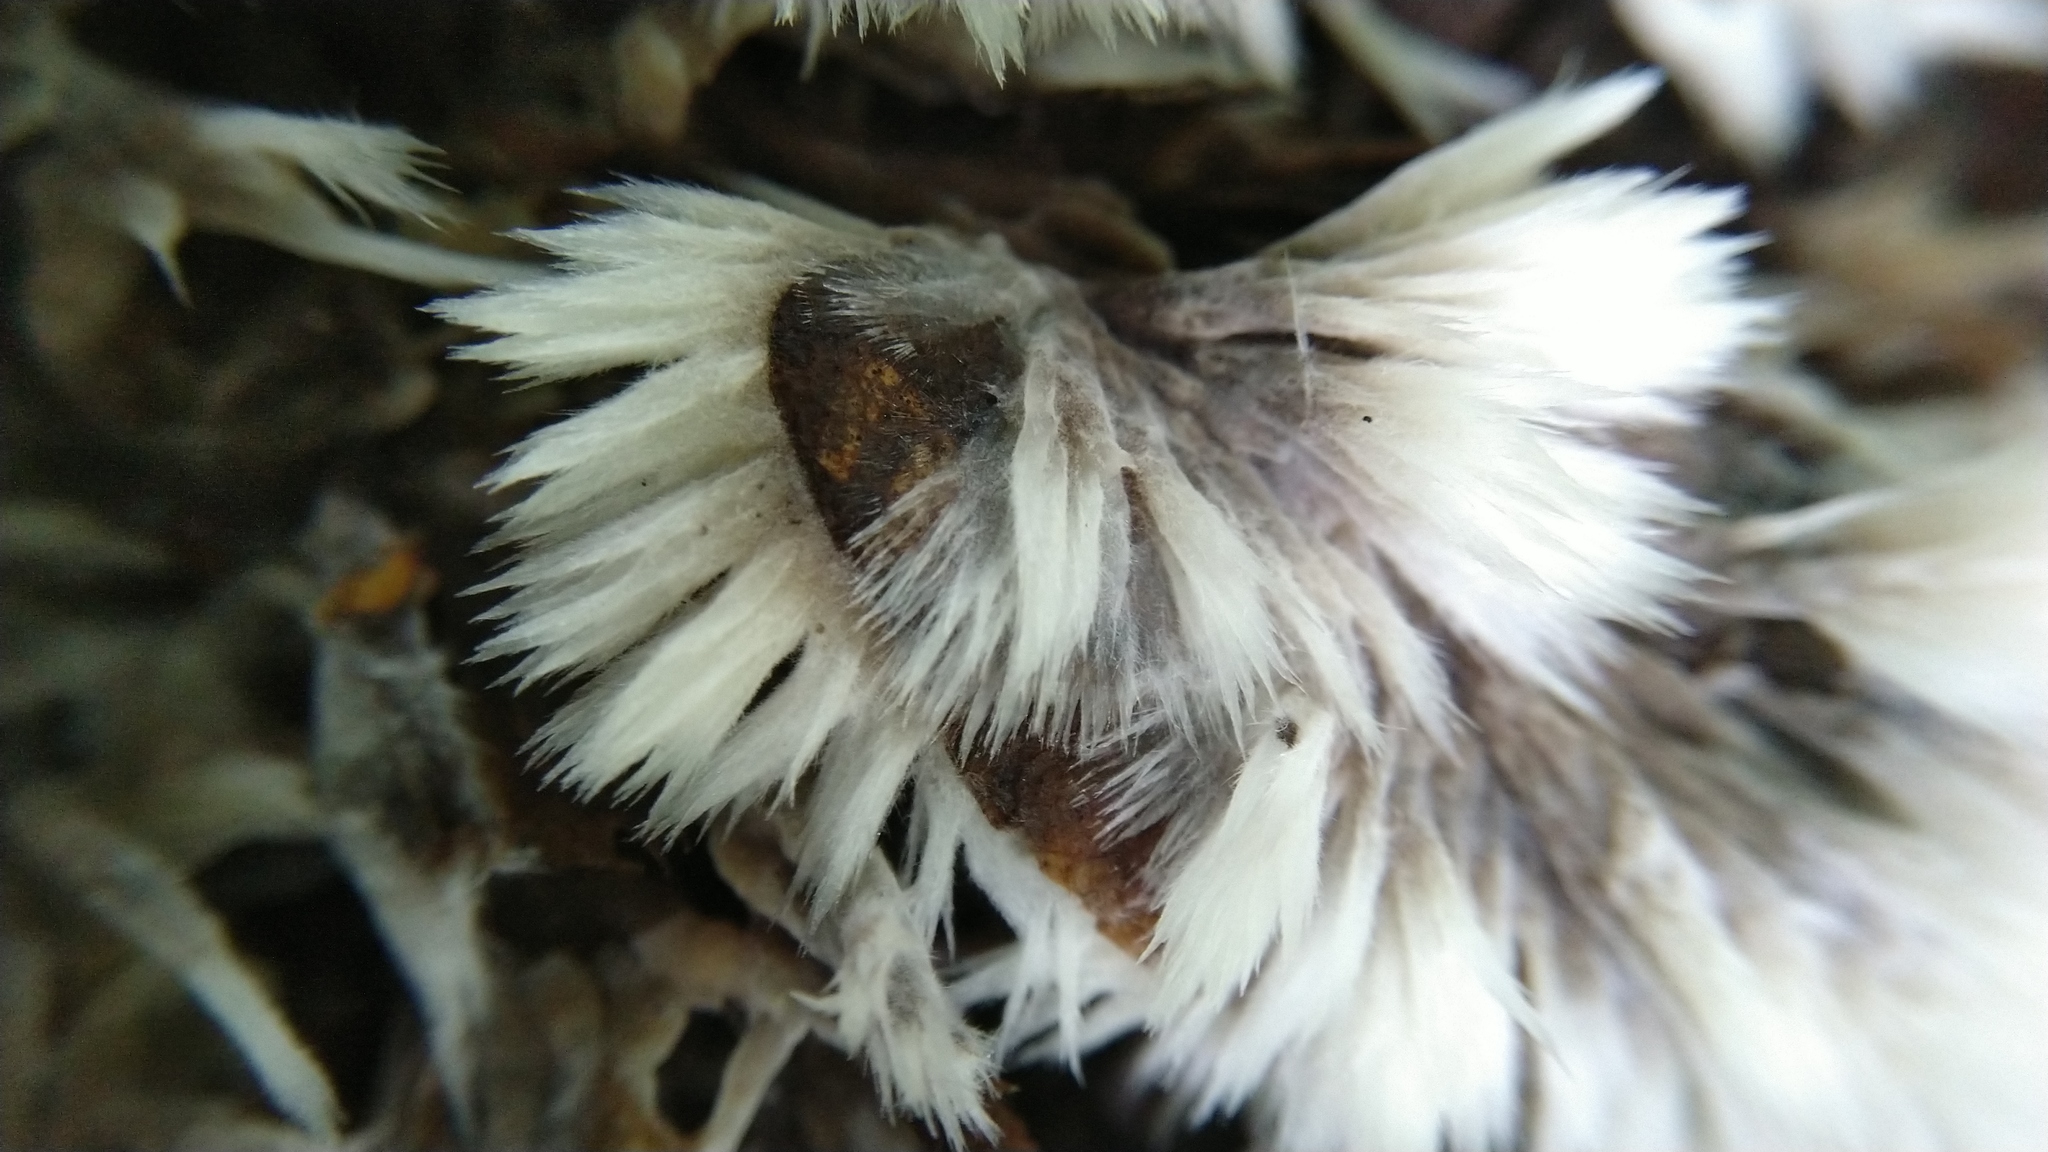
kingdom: Fungi
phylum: Basidiomycota
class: Agaricomycetes
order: Thelephorales
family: Thelephoraceae
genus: Thelephora
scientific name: Thelephora penicillata
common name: Urchin earthfan
